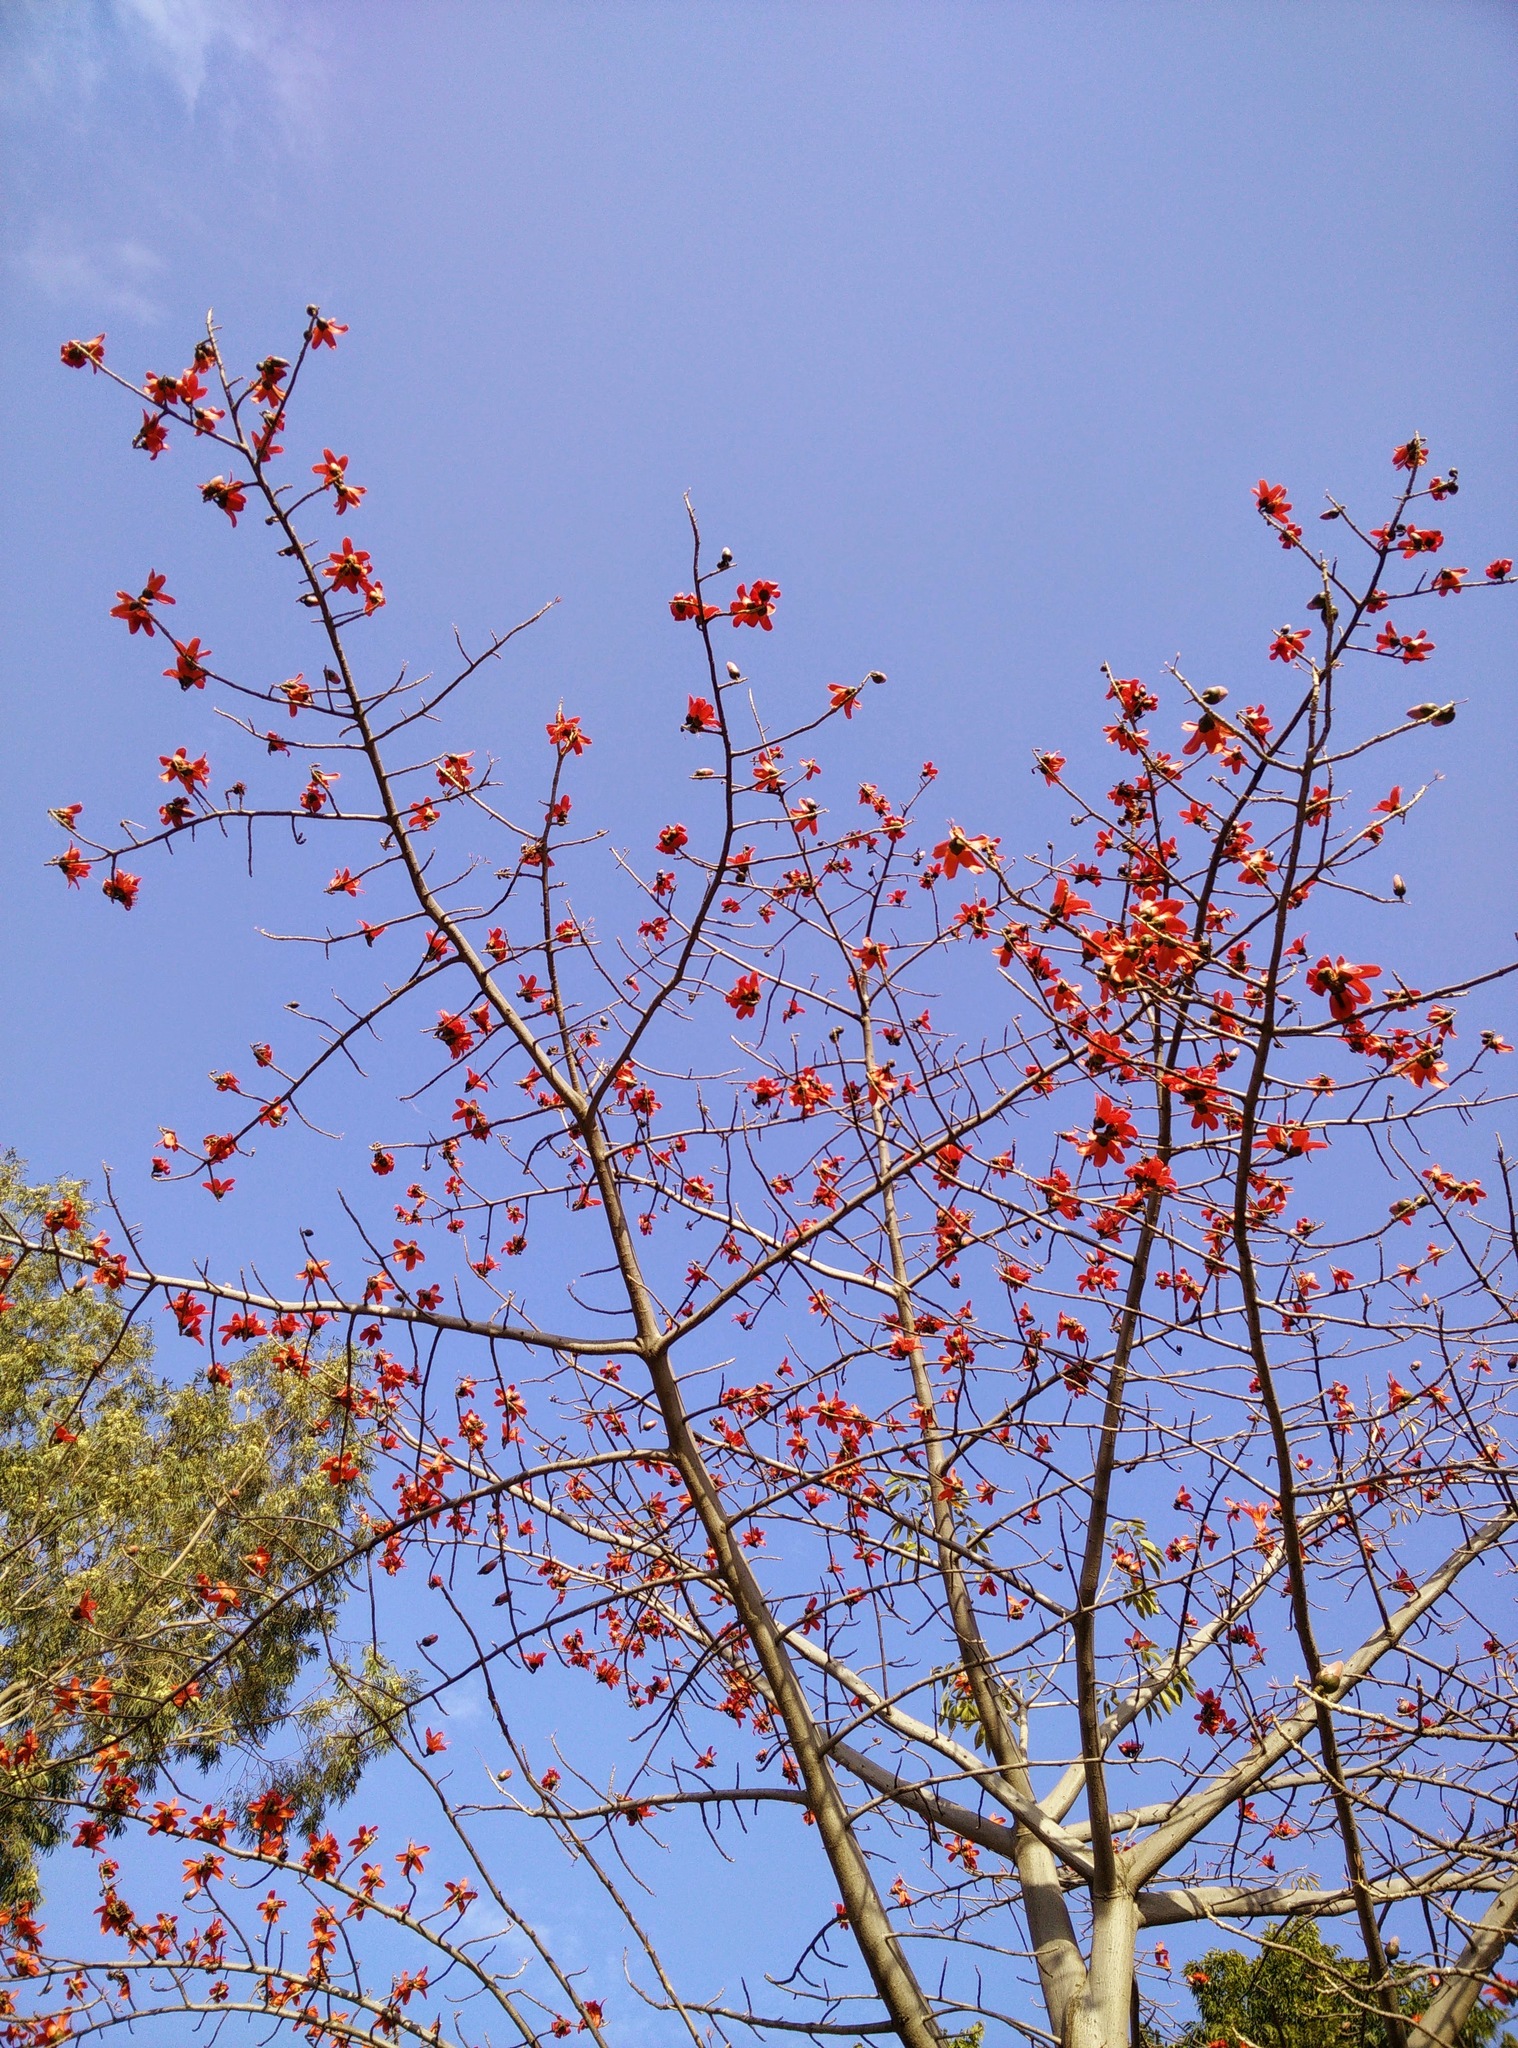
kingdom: Plantae
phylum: Tracheophyta
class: Magnoliopsida
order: Malvales
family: Malvaceae
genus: Bombax
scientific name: Bombax ceiba
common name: Northern-cottonwood
